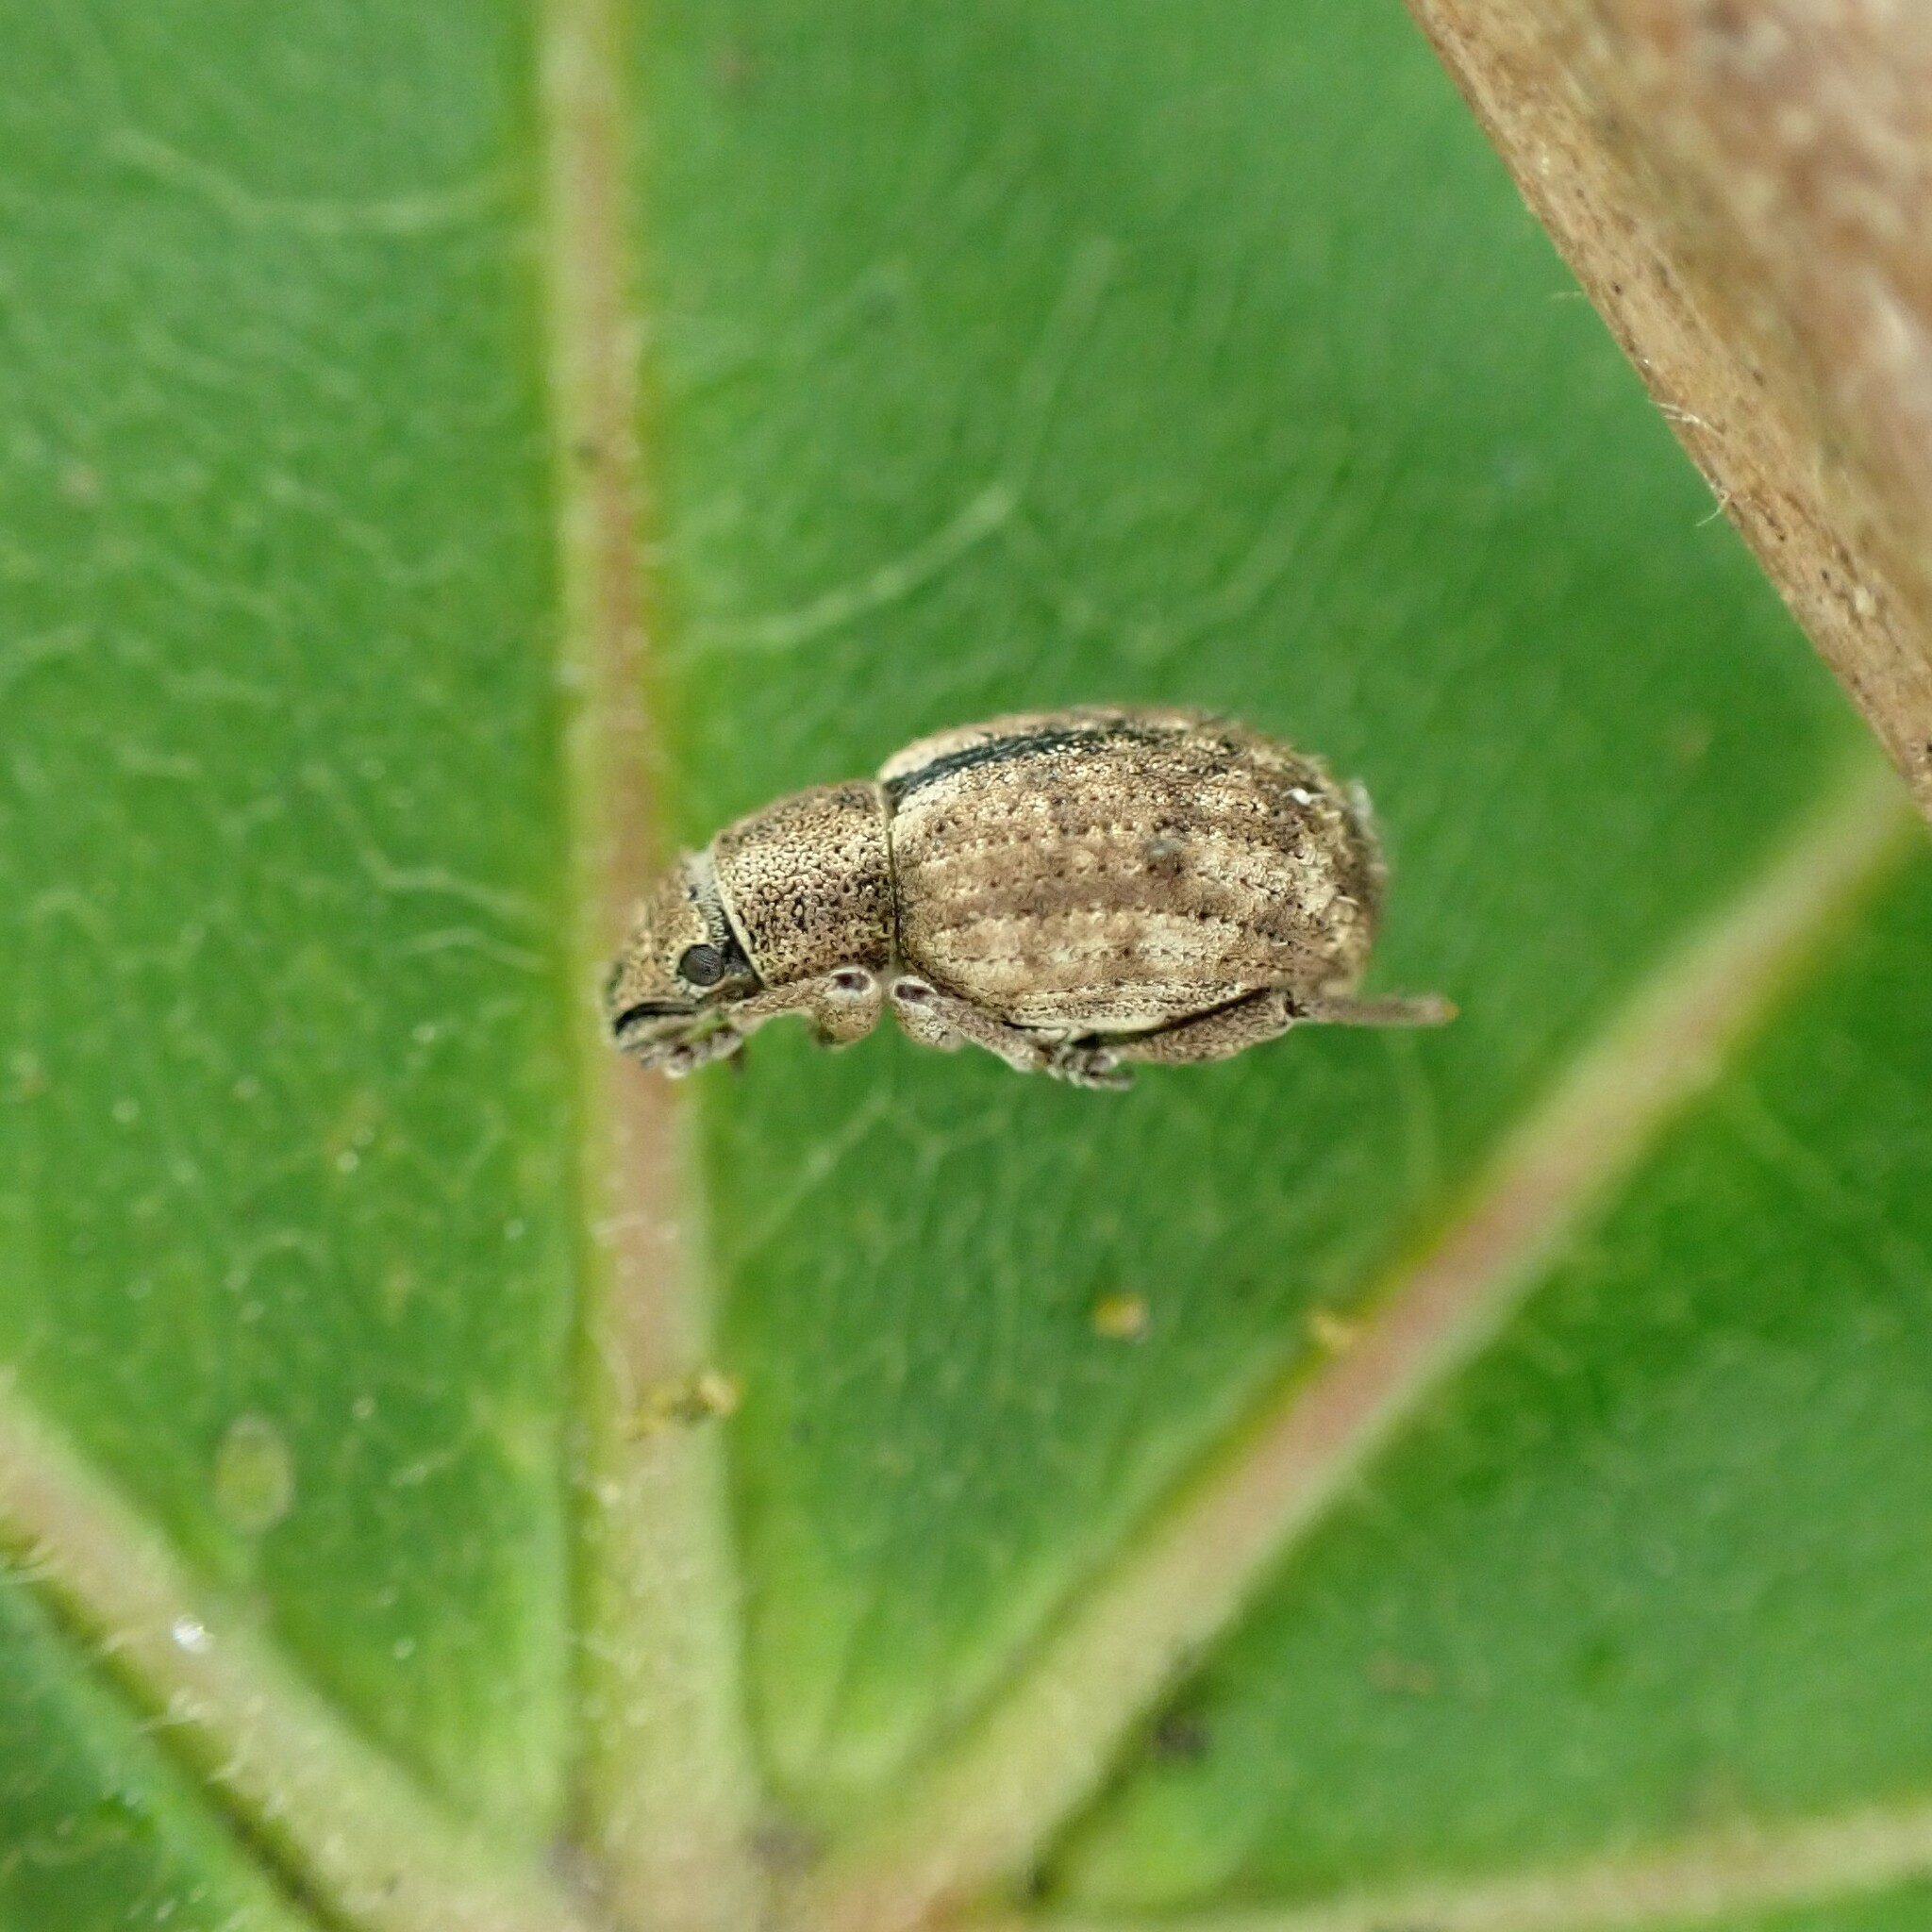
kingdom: Animalia
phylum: Arthropoda
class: Insecta
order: Coleoptera
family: Curculionidae
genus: Strophosoma
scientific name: Strophosoma melanogrammum
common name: Weevil
